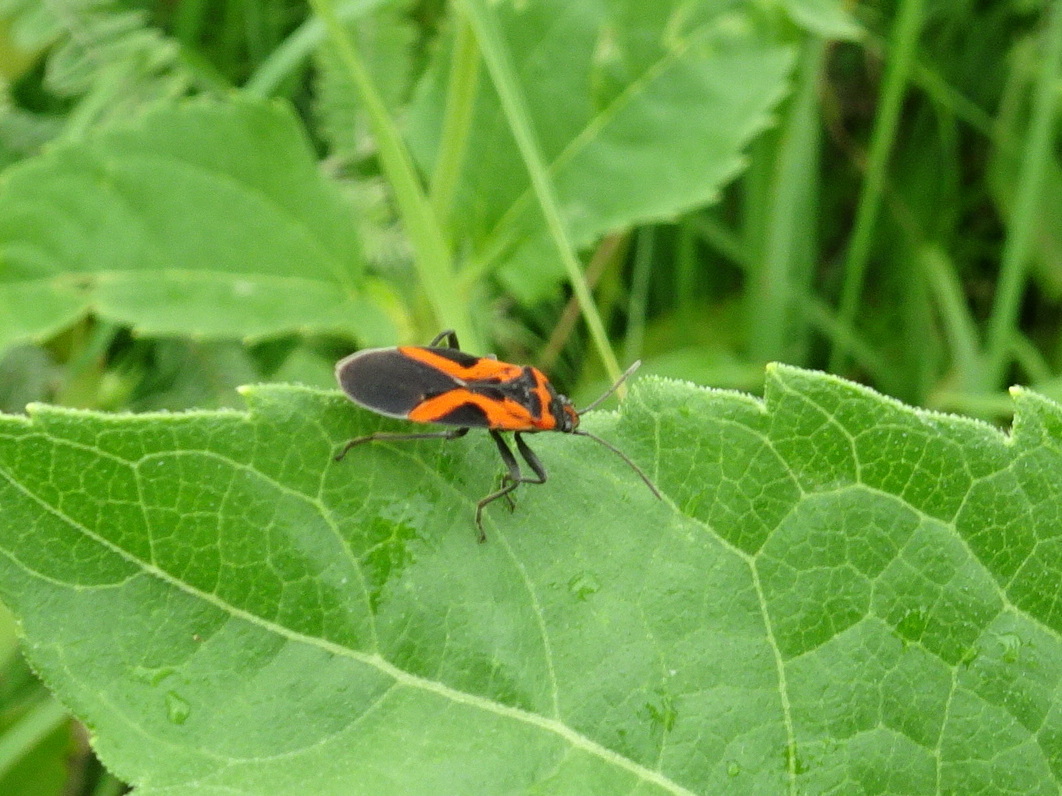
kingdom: Animalia
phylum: Arthropoda
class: Insecta
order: Hemiptera
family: Lygaeidae
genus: Lygaeus
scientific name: Lygaeus turcicus
